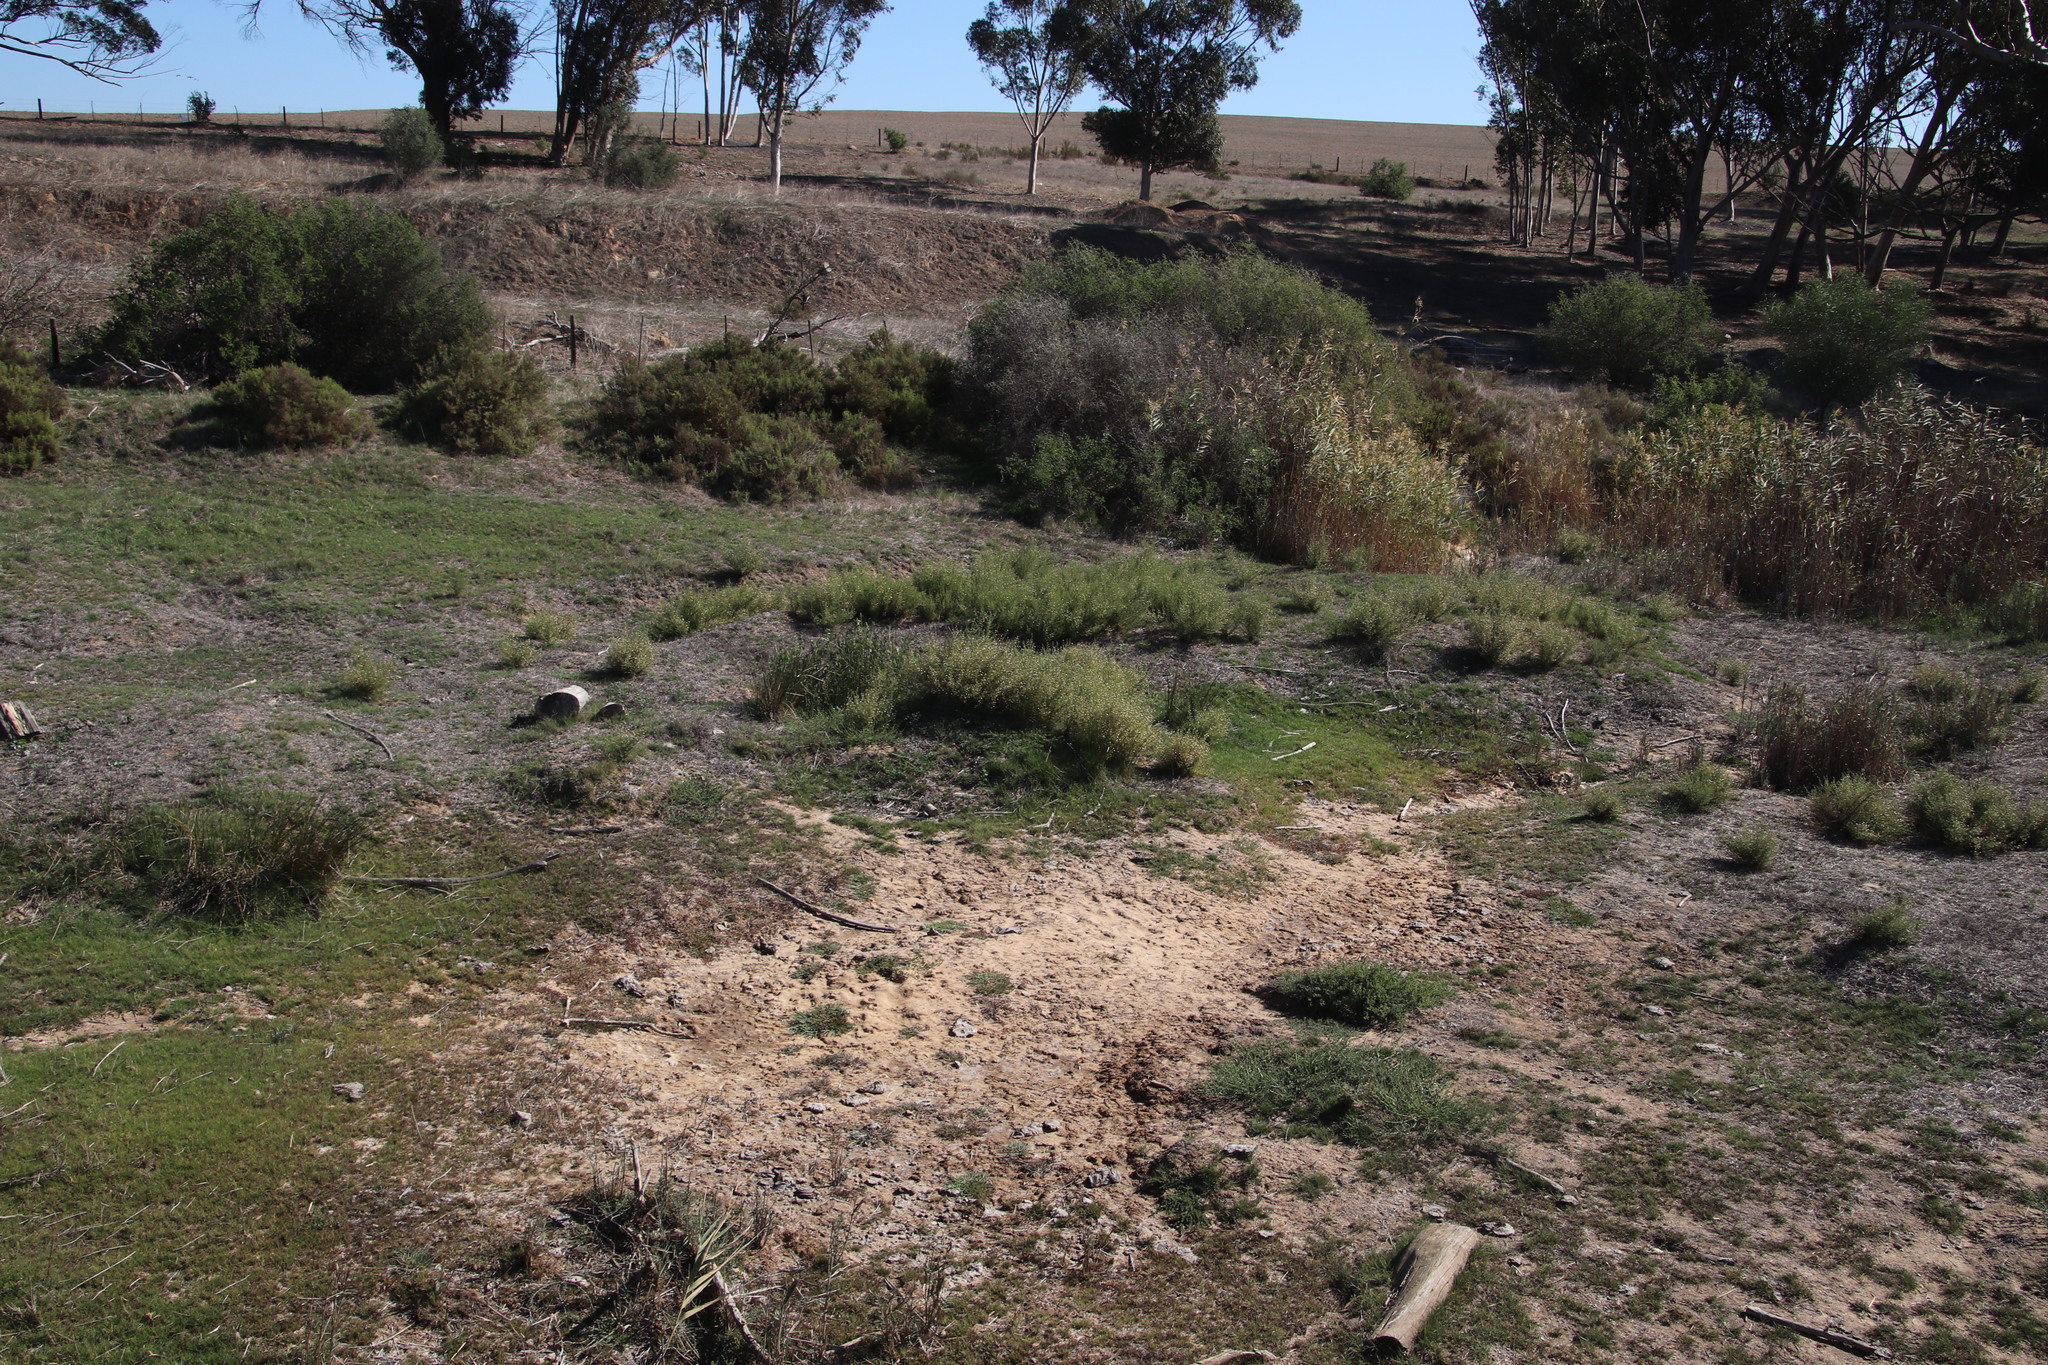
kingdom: Plantae
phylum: Tracheophyta
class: Magnoliopsida
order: Caryophyllales
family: Amaranthaceae
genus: Salsola
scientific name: Salsola kali
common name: Saltwort
